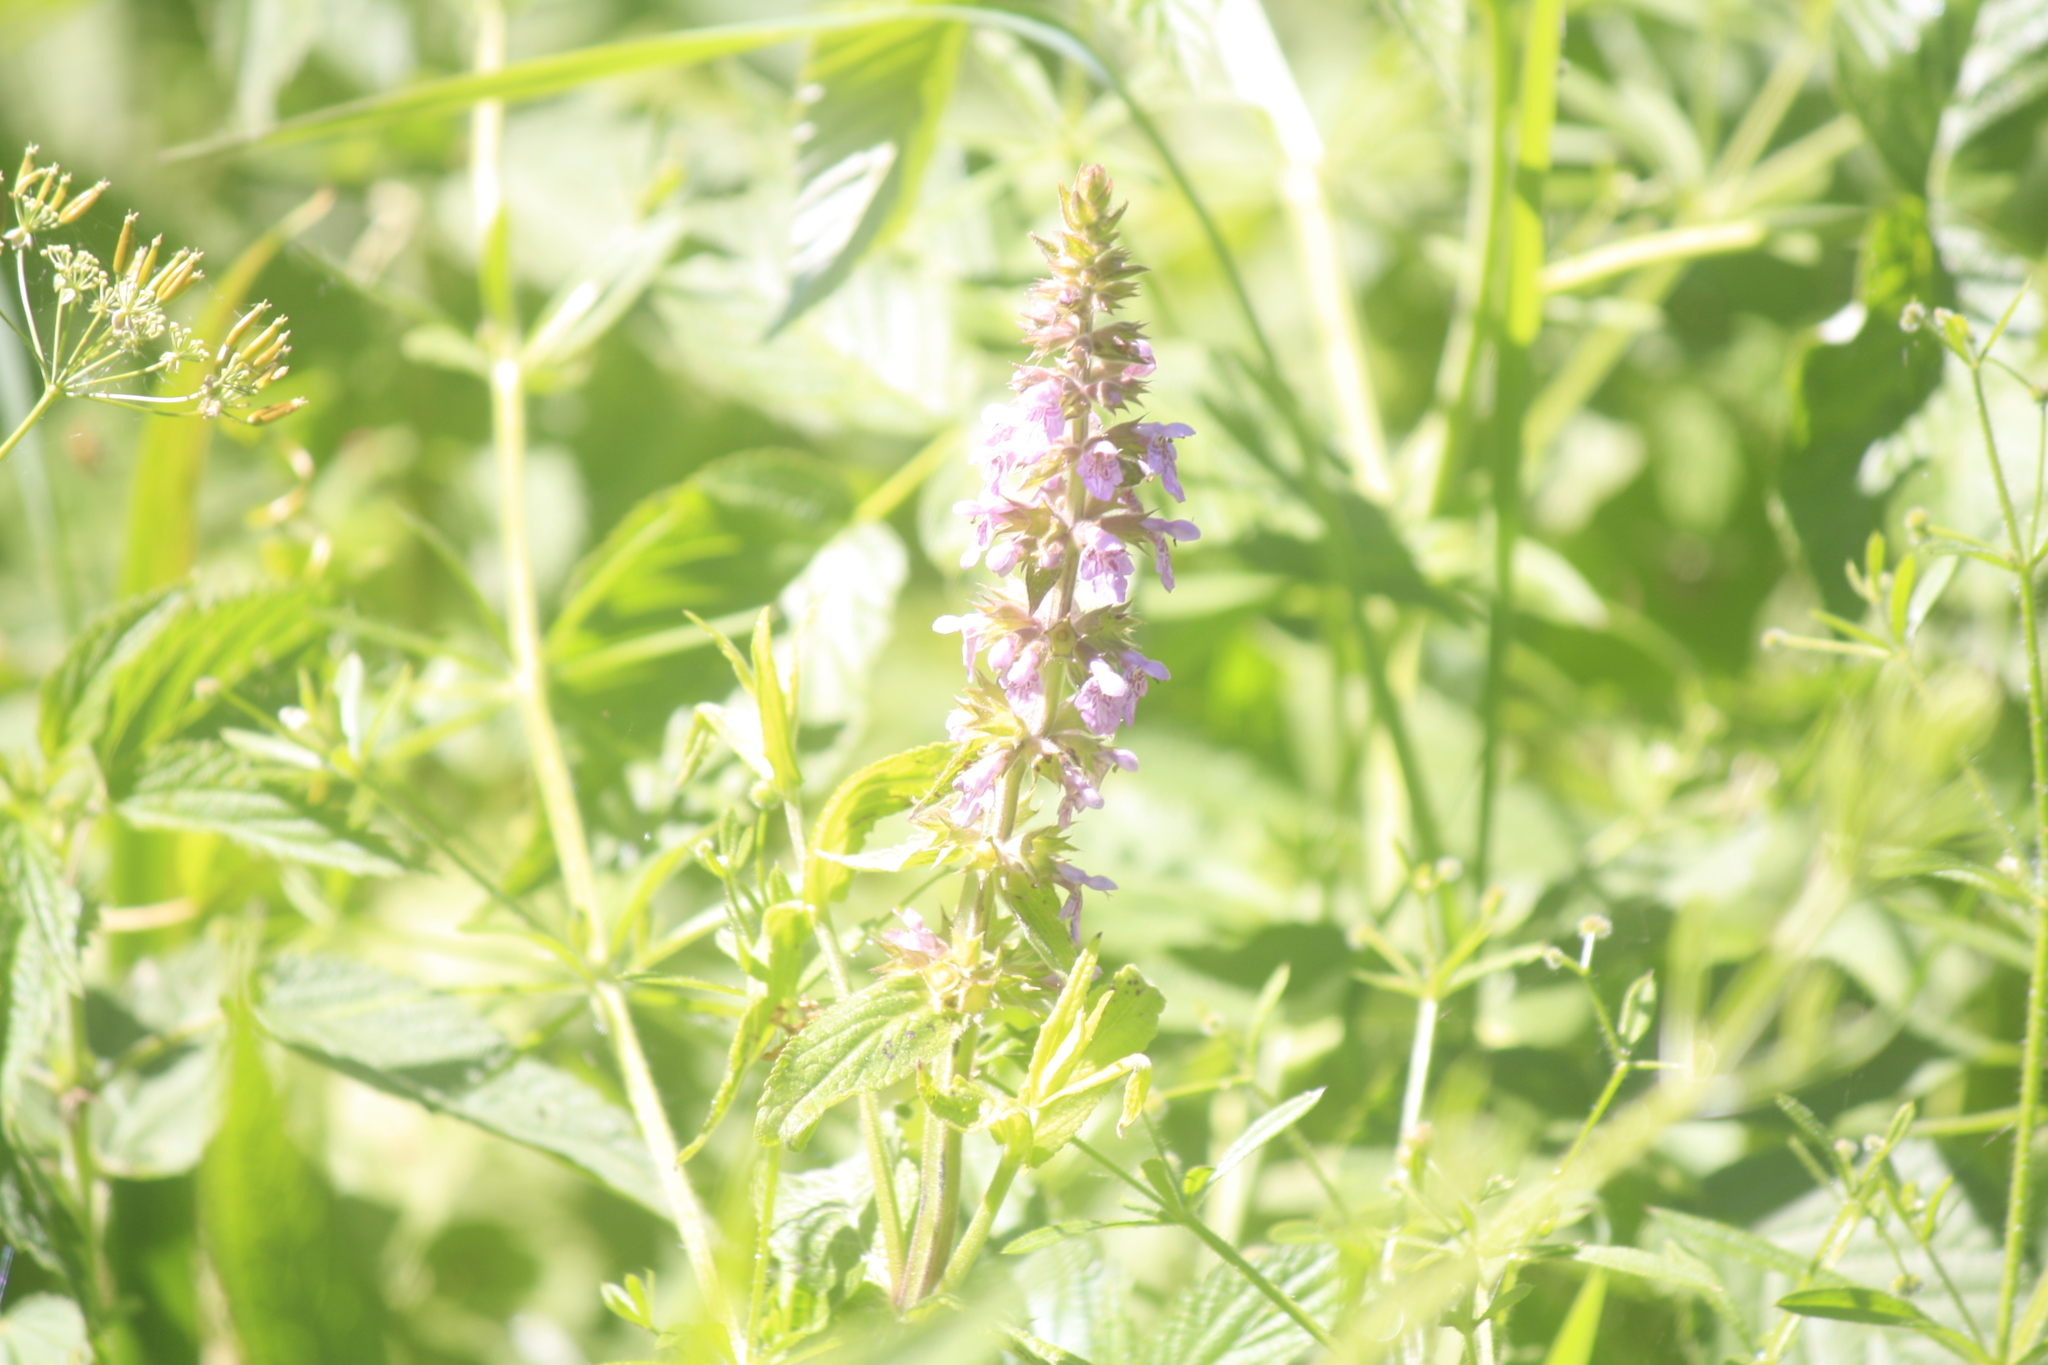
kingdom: Plantae
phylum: Tracheophyta
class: Magnoliopsida
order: Lamiales
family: Lamiaceae
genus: Stachys
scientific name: Stachys palustris
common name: Marsh woundwort
